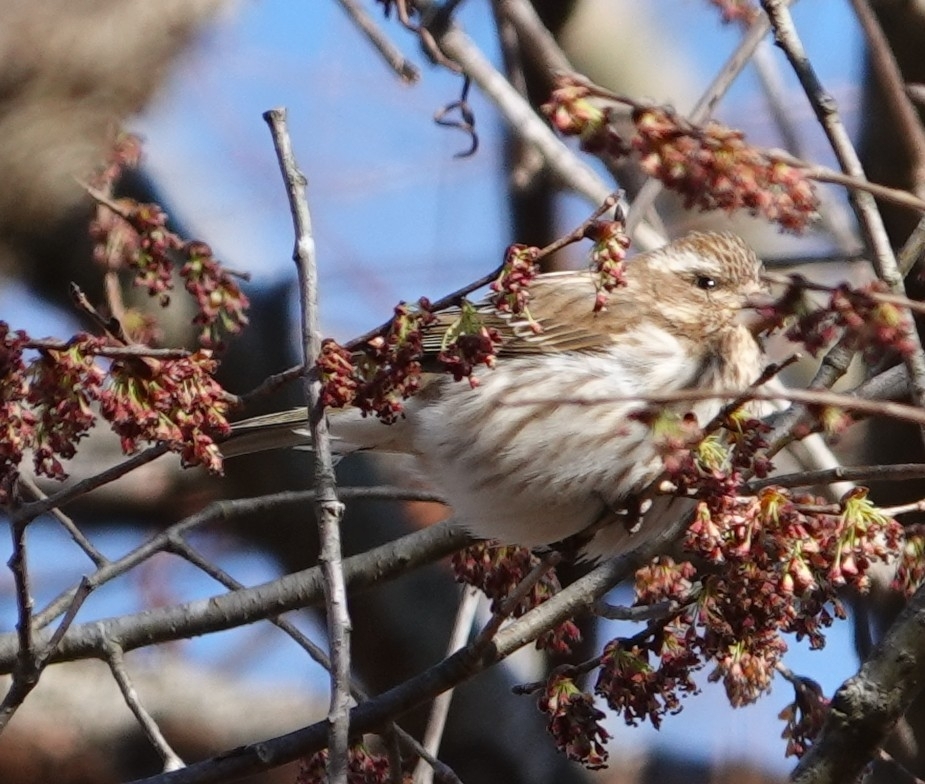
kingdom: Animalia
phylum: Chordata
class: Aves
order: Passeriformes
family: Fringillidae
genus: Haemorhous
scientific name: Haemorhous purpureus
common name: Purple finch
